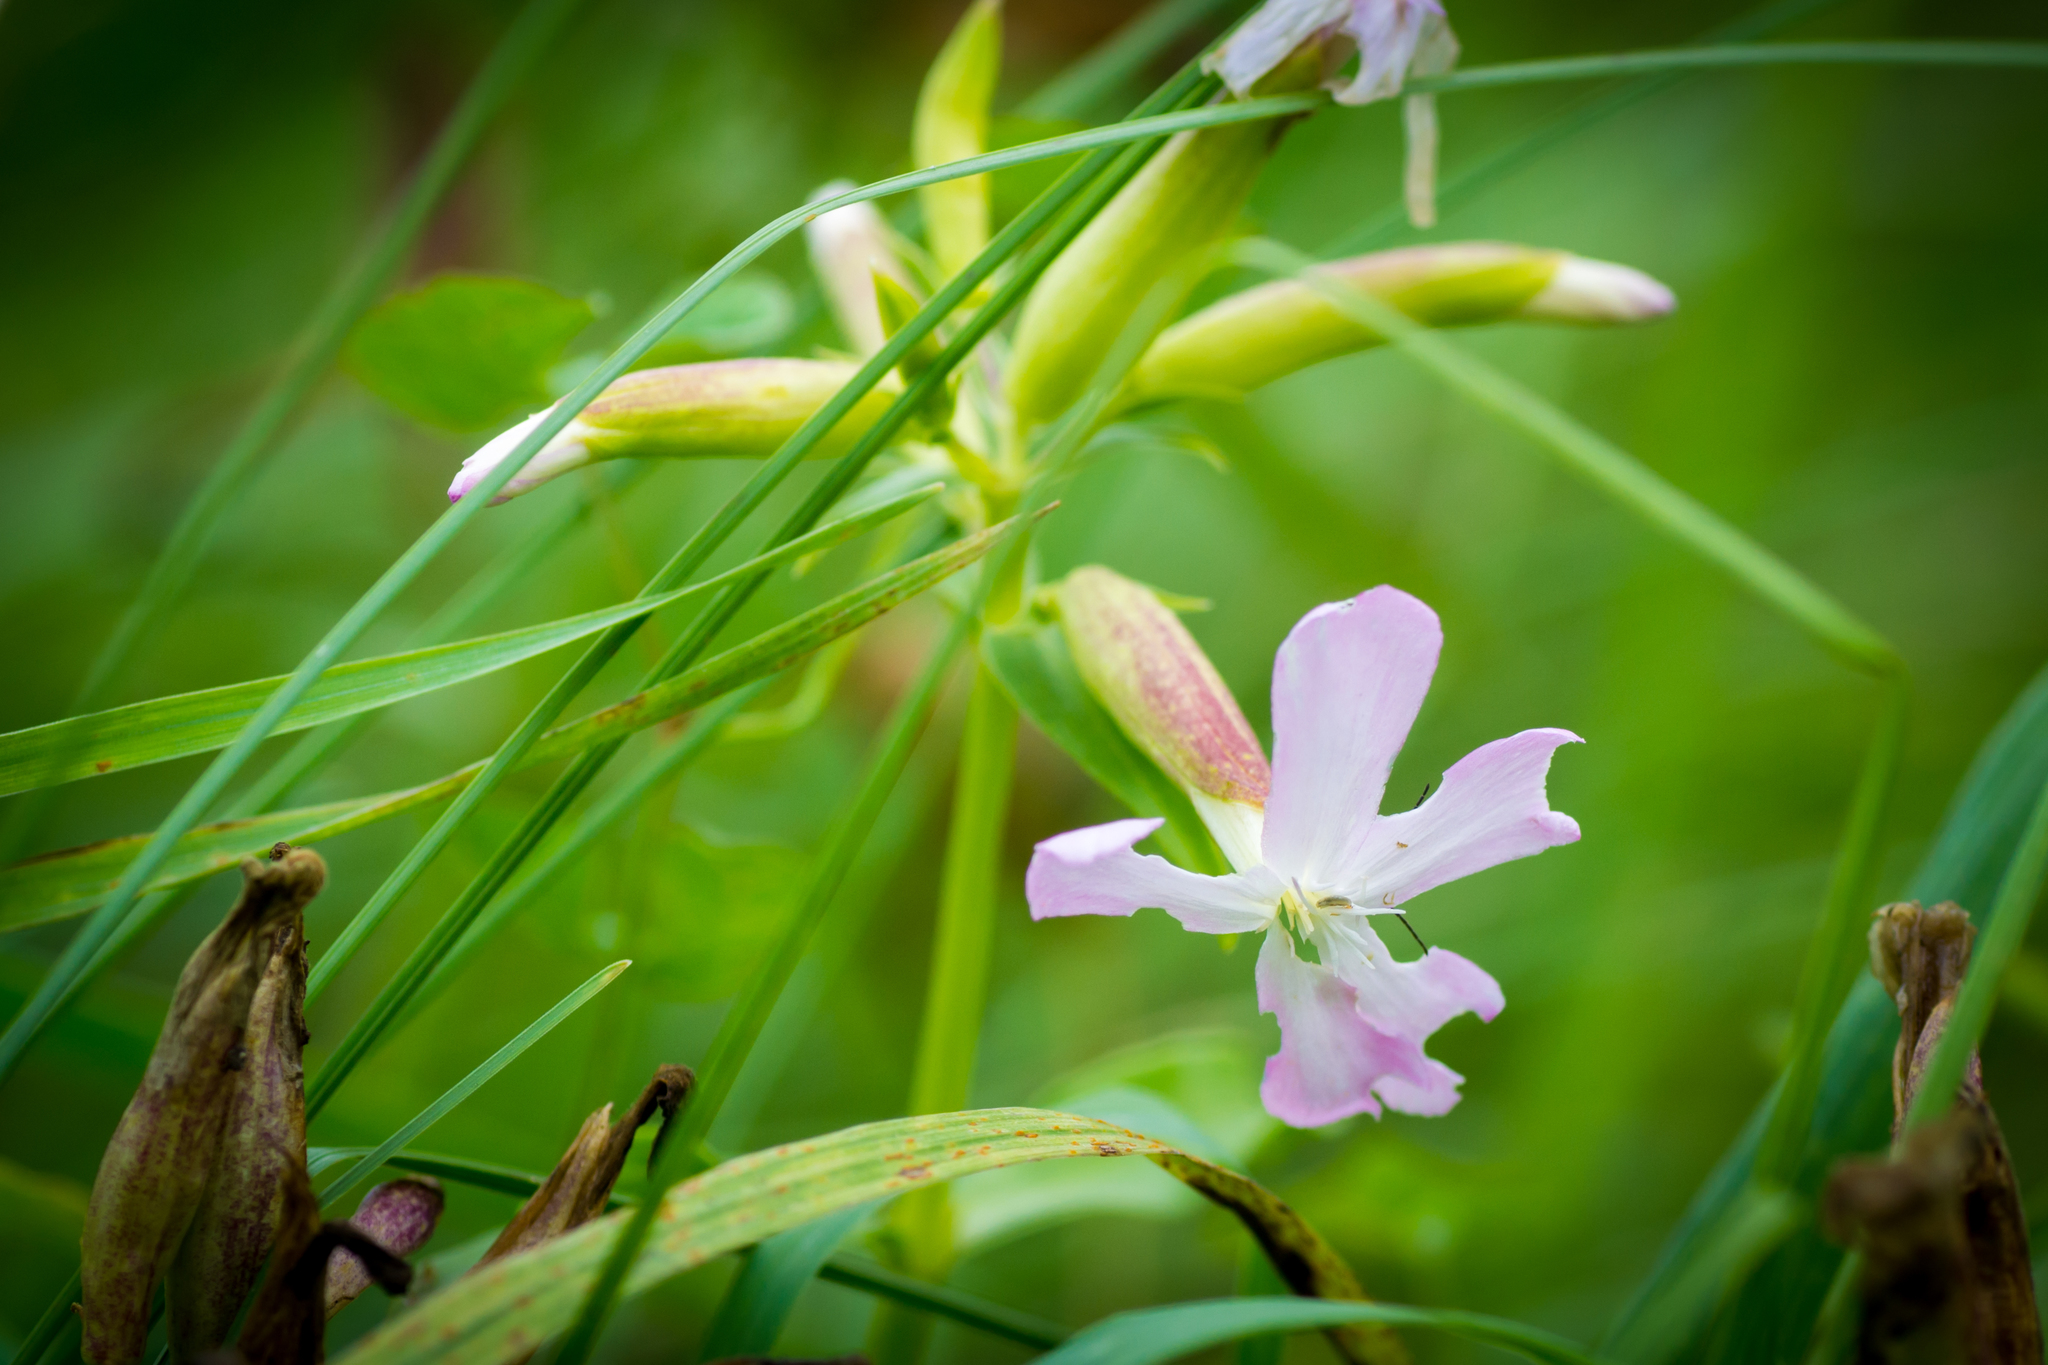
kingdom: Plantae
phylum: Tracheophyta
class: Magnoliopsida
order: Caryophyllales
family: Caryophyllaceae
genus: Saponaria
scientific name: Saponaria officinalis
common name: Soapwort
